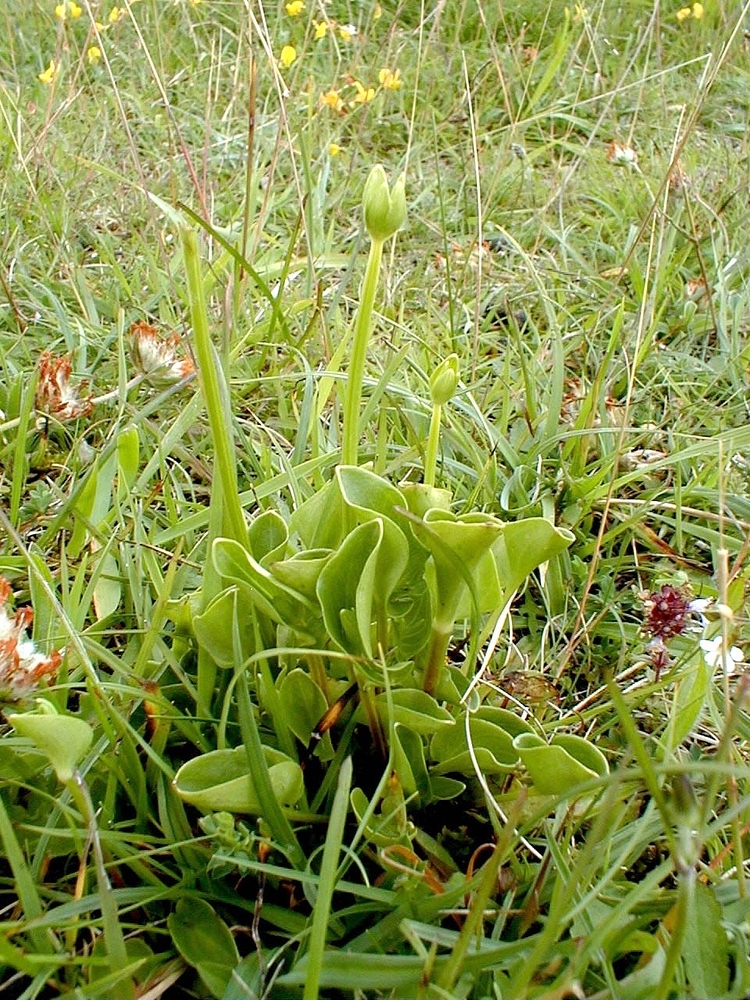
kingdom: Plantae
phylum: Tracheophyta
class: Magnoliopsida
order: Celastrales
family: Parnassiaceae
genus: Parnassia
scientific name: Parnassia palustris
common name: Grass-of-parnassus
